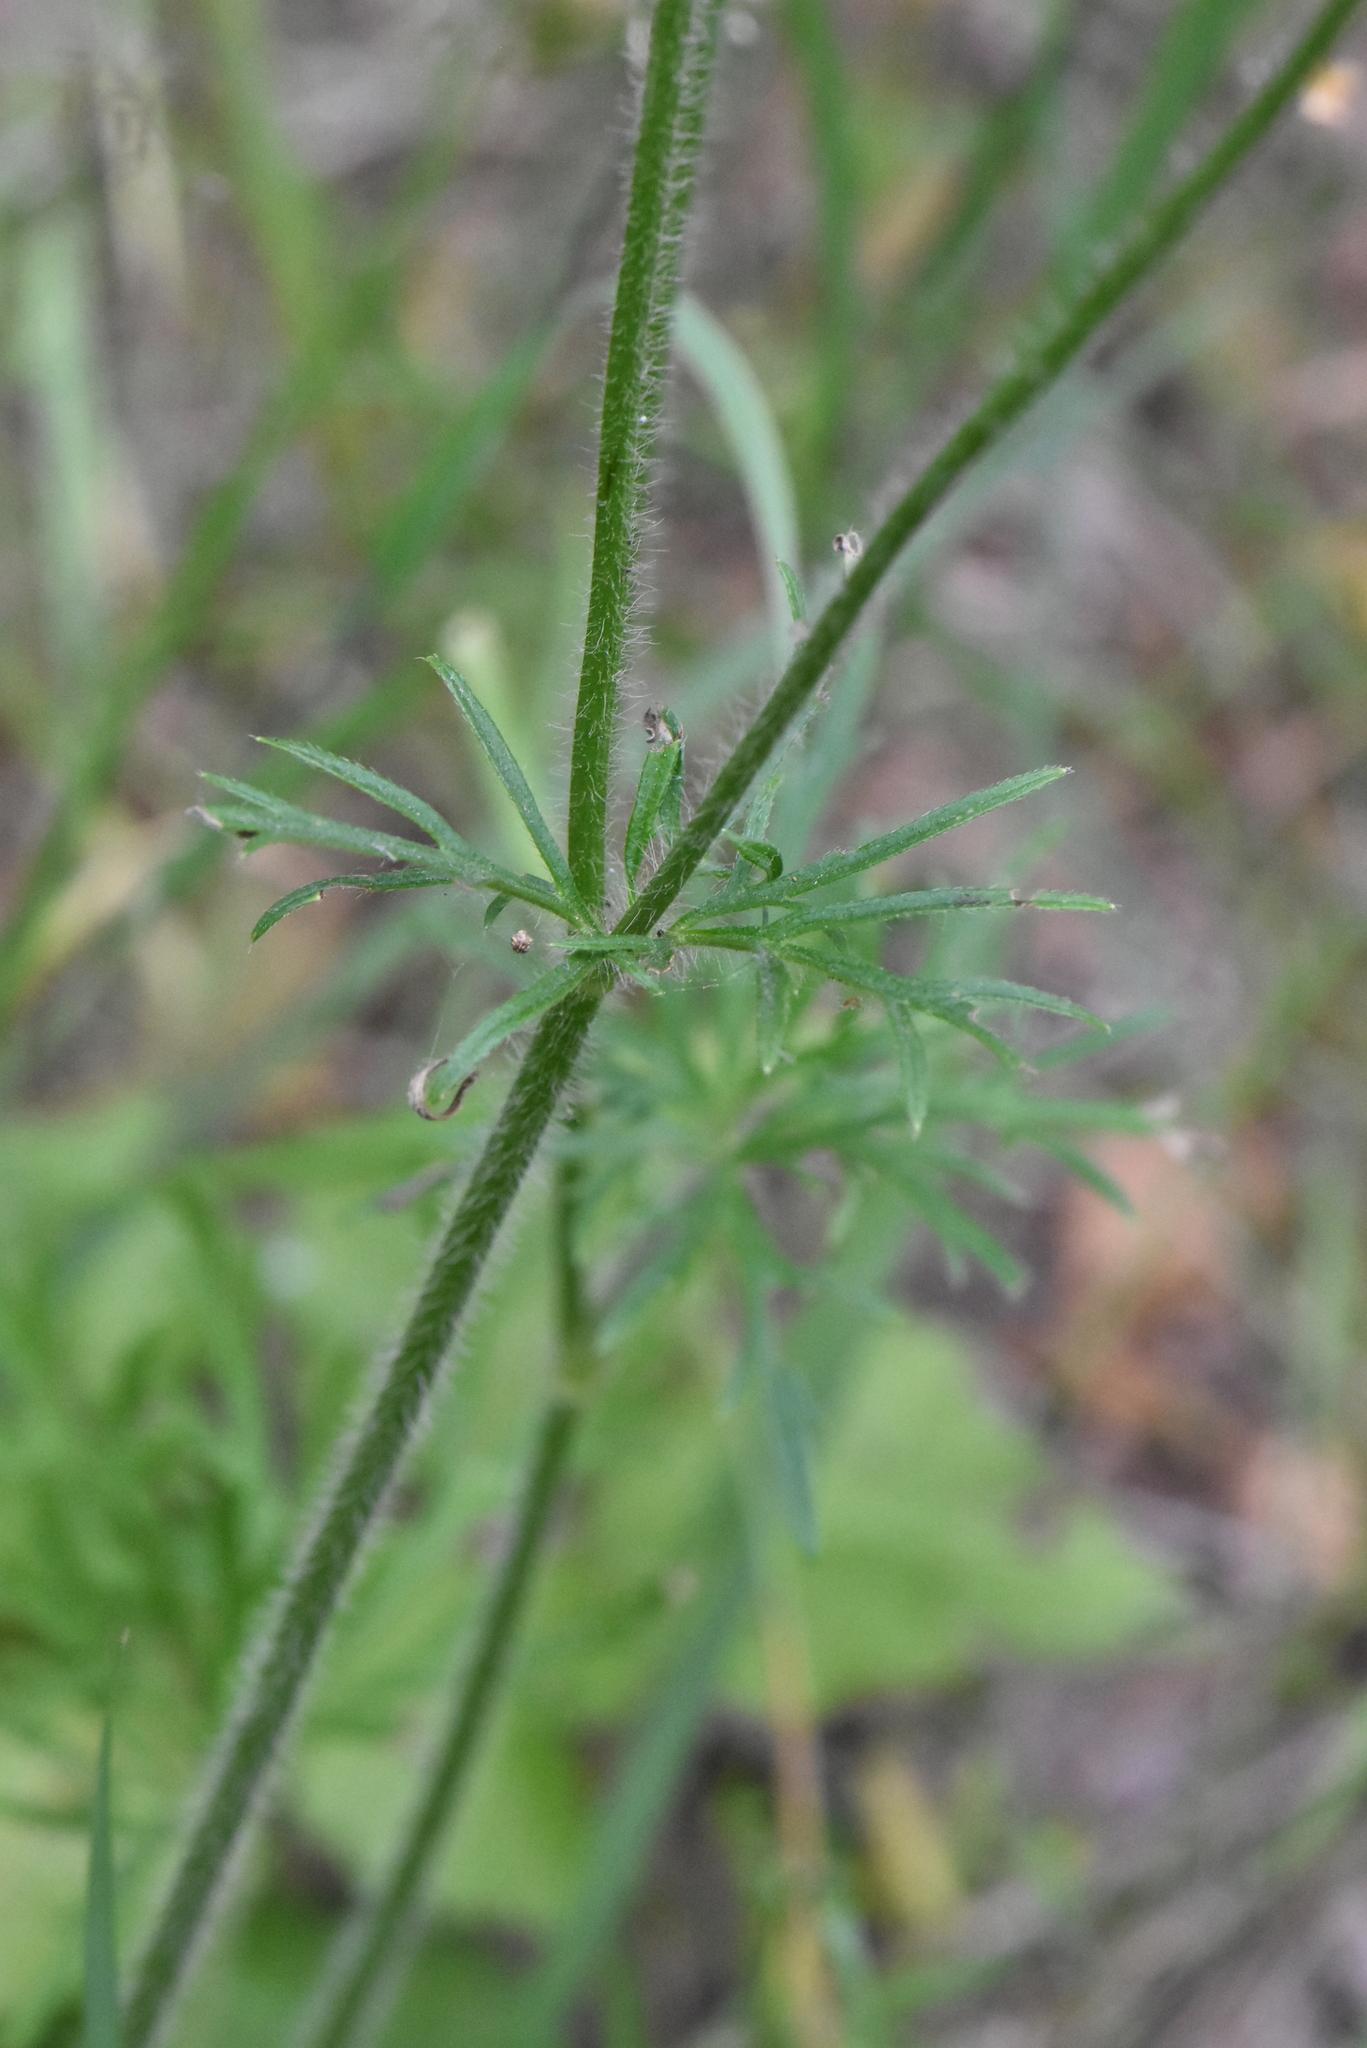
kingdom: Plantae
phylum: Tracheophyta
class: Magnoliopsida
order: Ranunculales
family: Ranunculaceae
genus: Ranunculus
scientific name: Ranunculus polyanthemos
